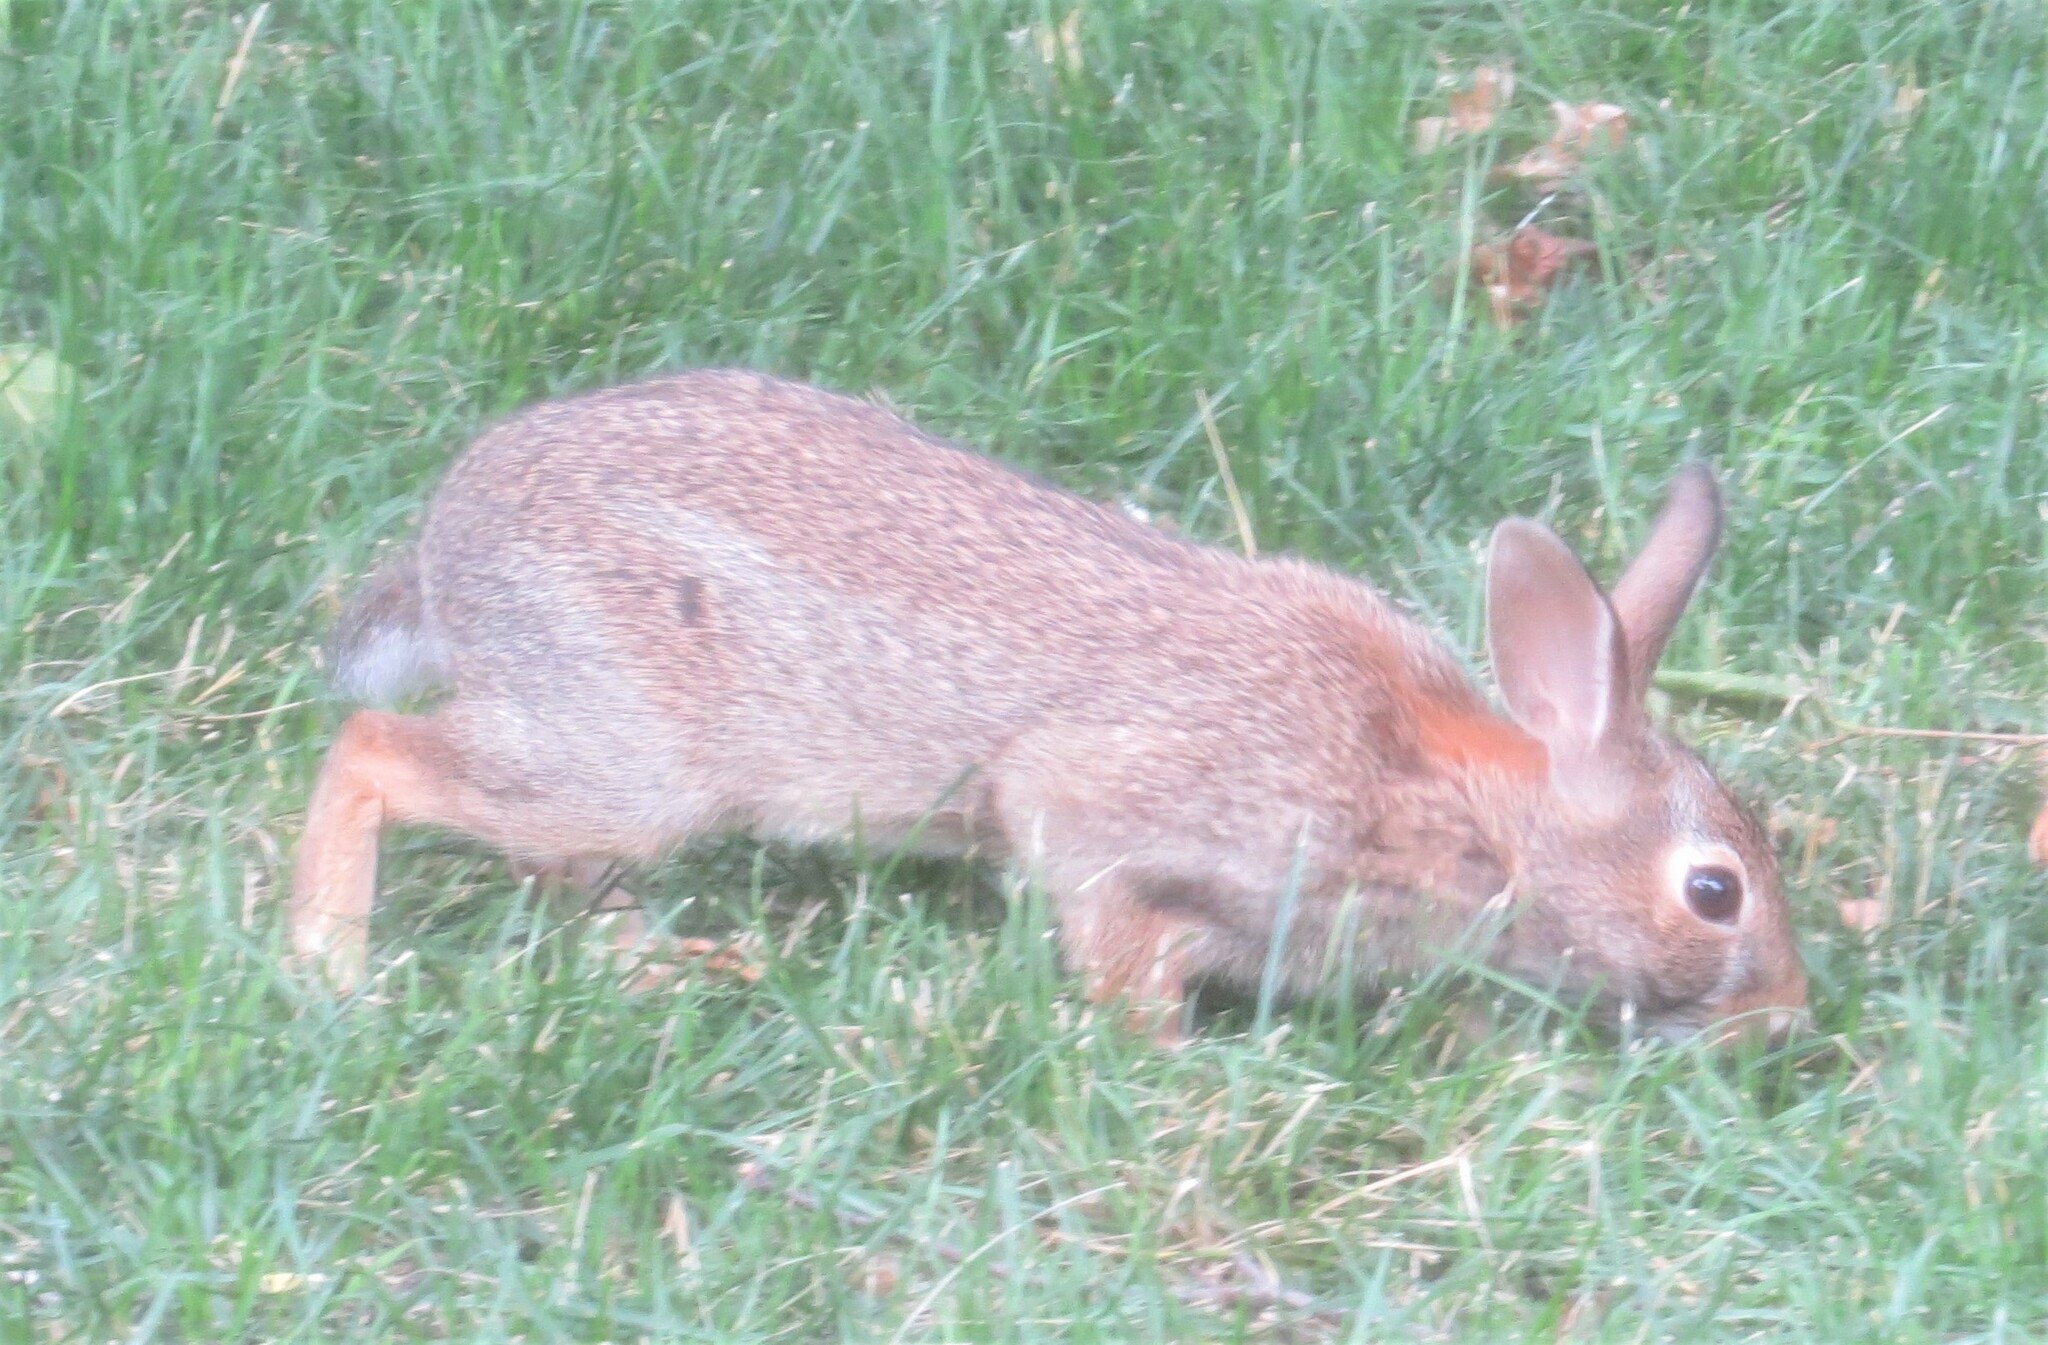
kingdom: Animalia
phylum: Chordata
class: Mammalia
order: Lagomorpha
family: Leporidae
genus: Sylvilagus
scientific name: Sylvilagus floridanus
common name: Eastern cottontail
